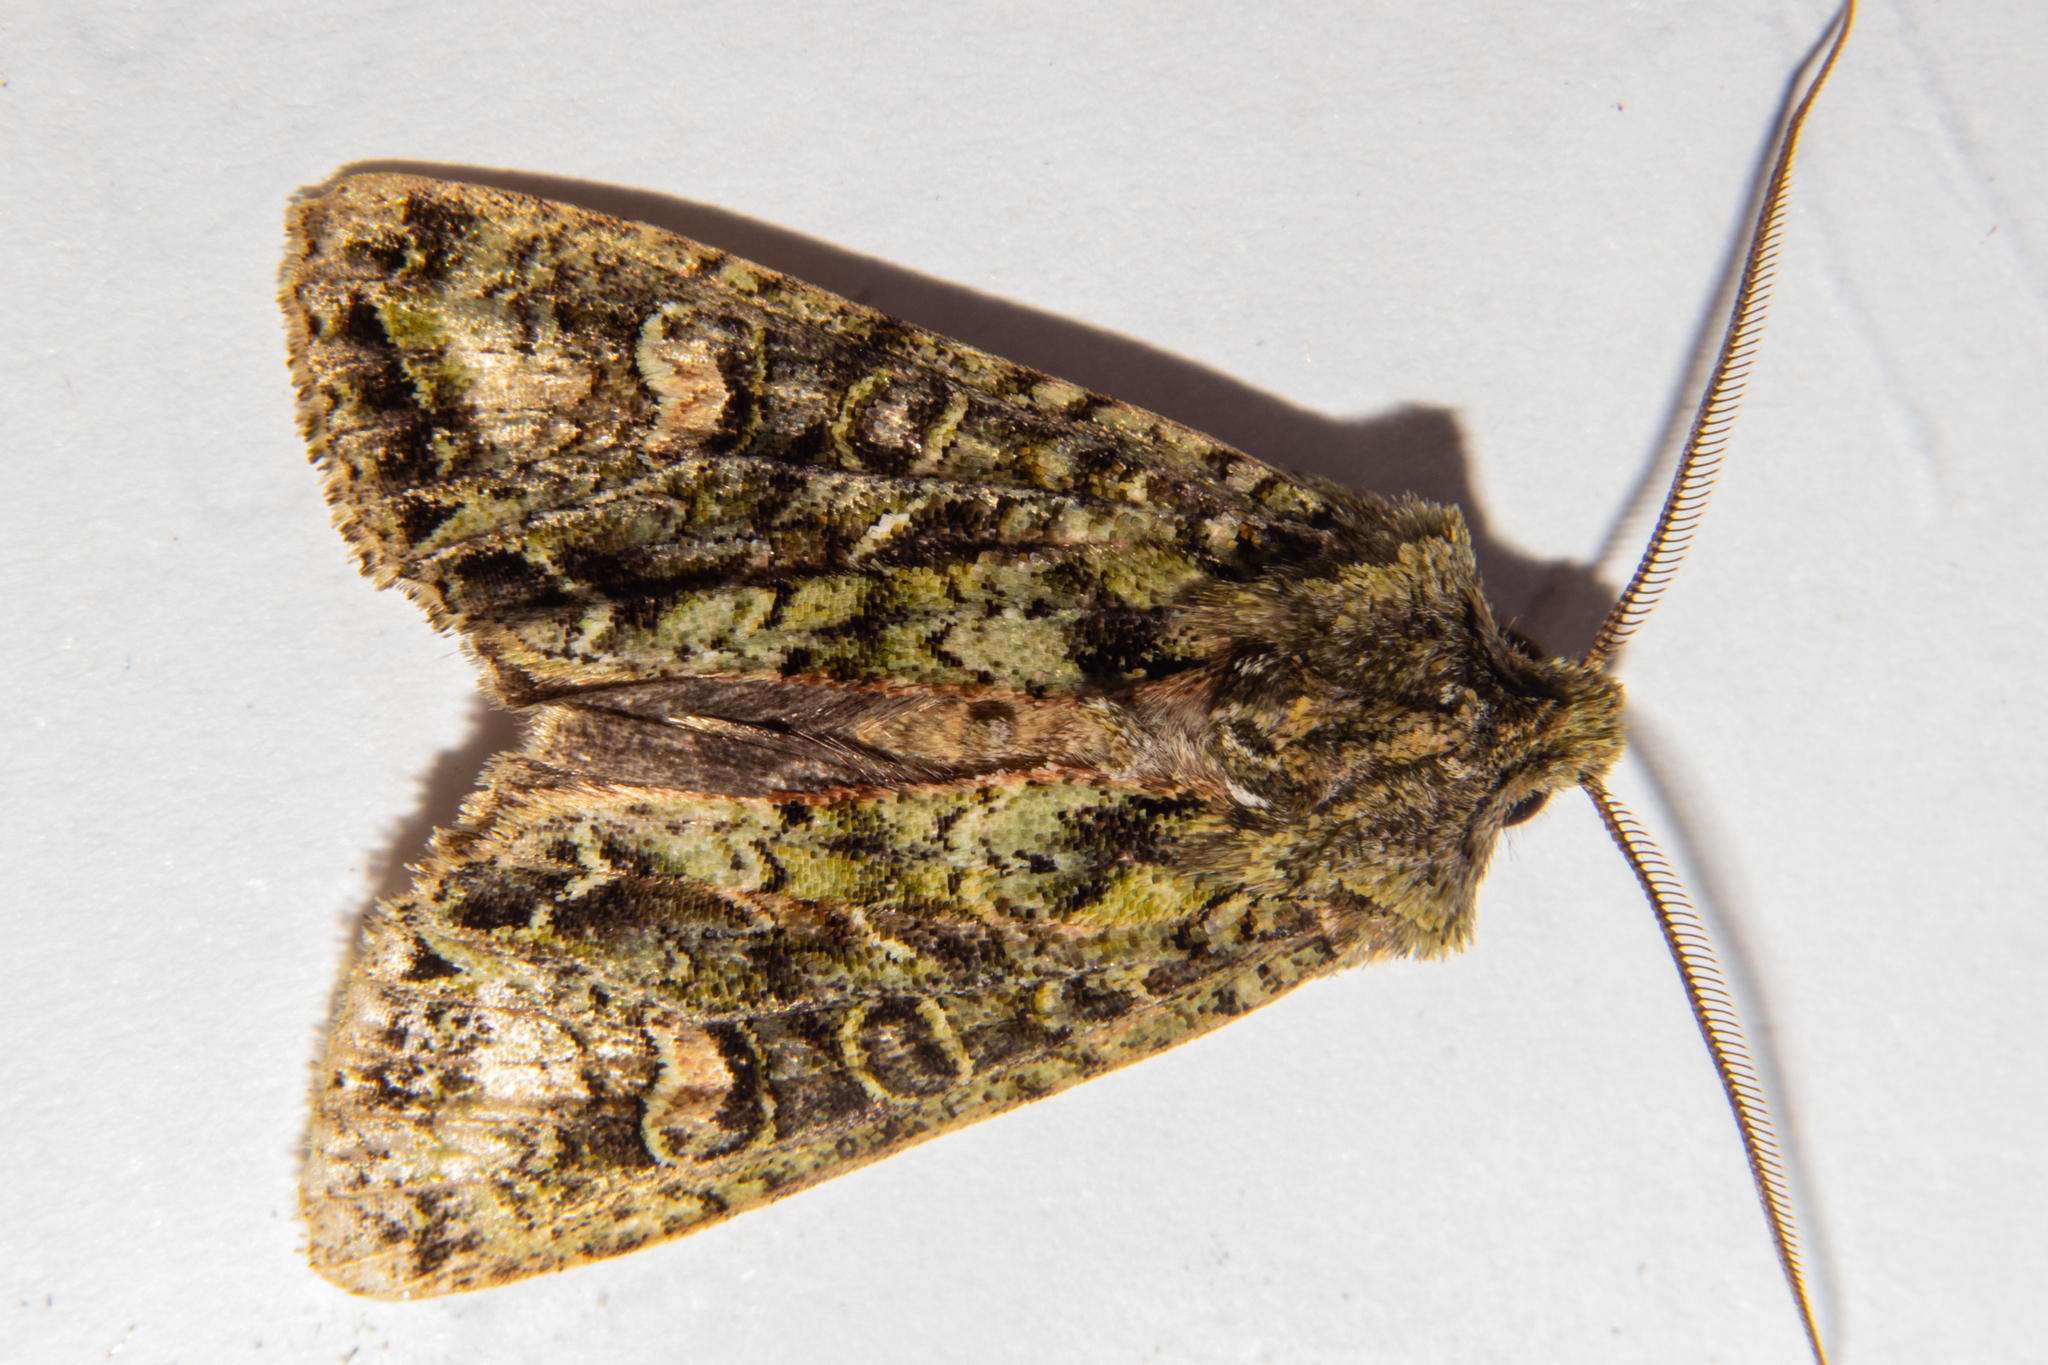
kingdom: Animalia
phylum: Arthropoda
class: Insecta
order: Lepidoptera
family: Noctuidae
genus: Ichneutica
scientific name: Ichneutica
